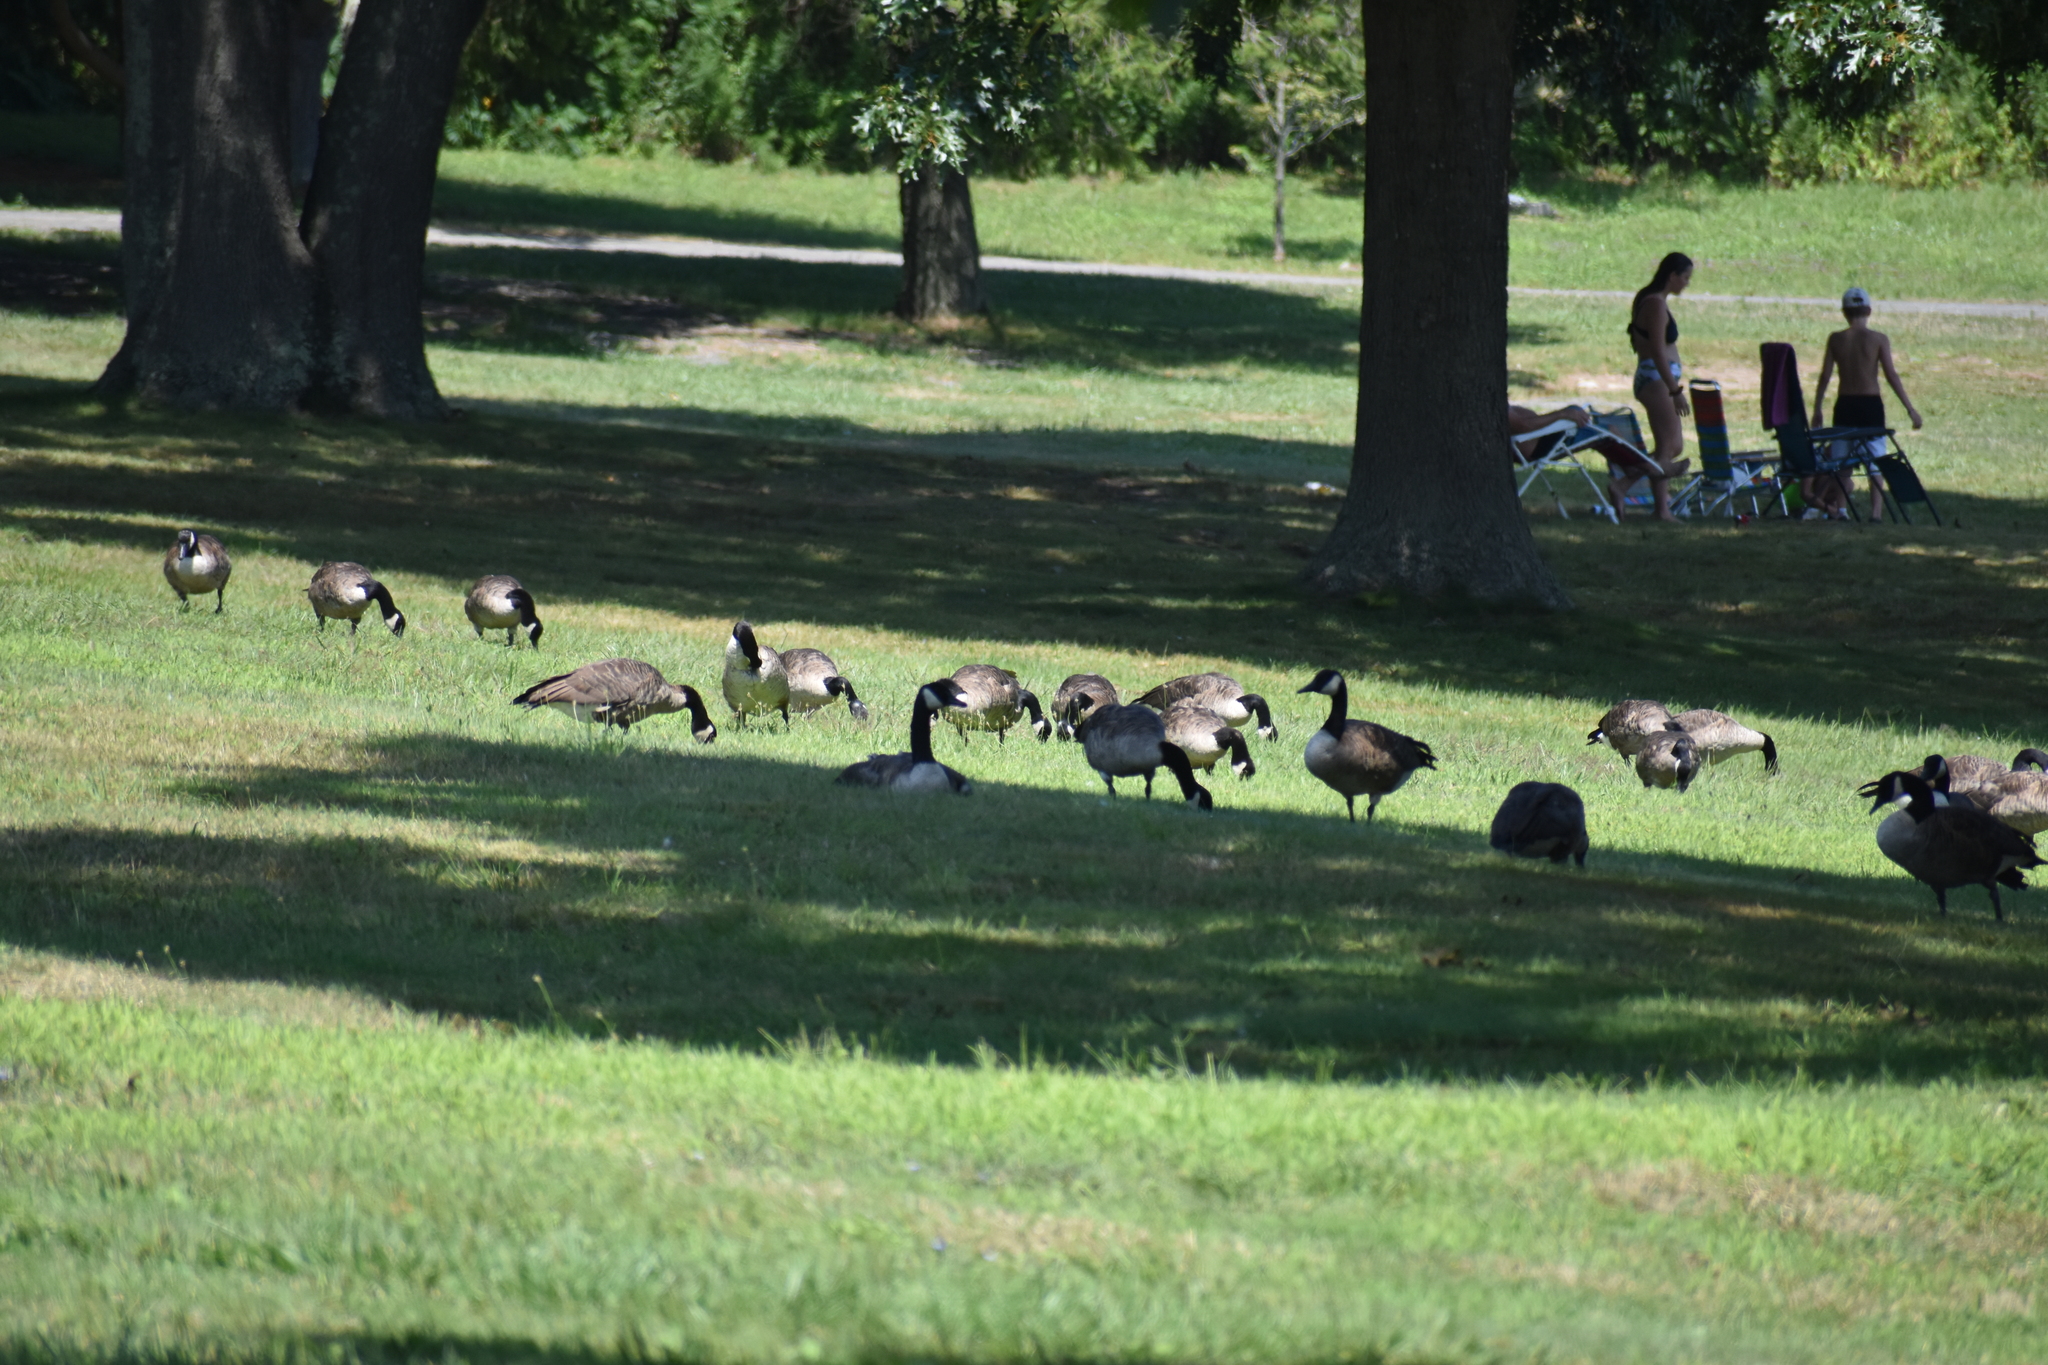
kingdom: Animalia
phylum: Chordata
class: Aves
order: Anseriformes
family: Anatidae
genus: Branta
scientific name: Branta canadensis
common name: Canada goose
